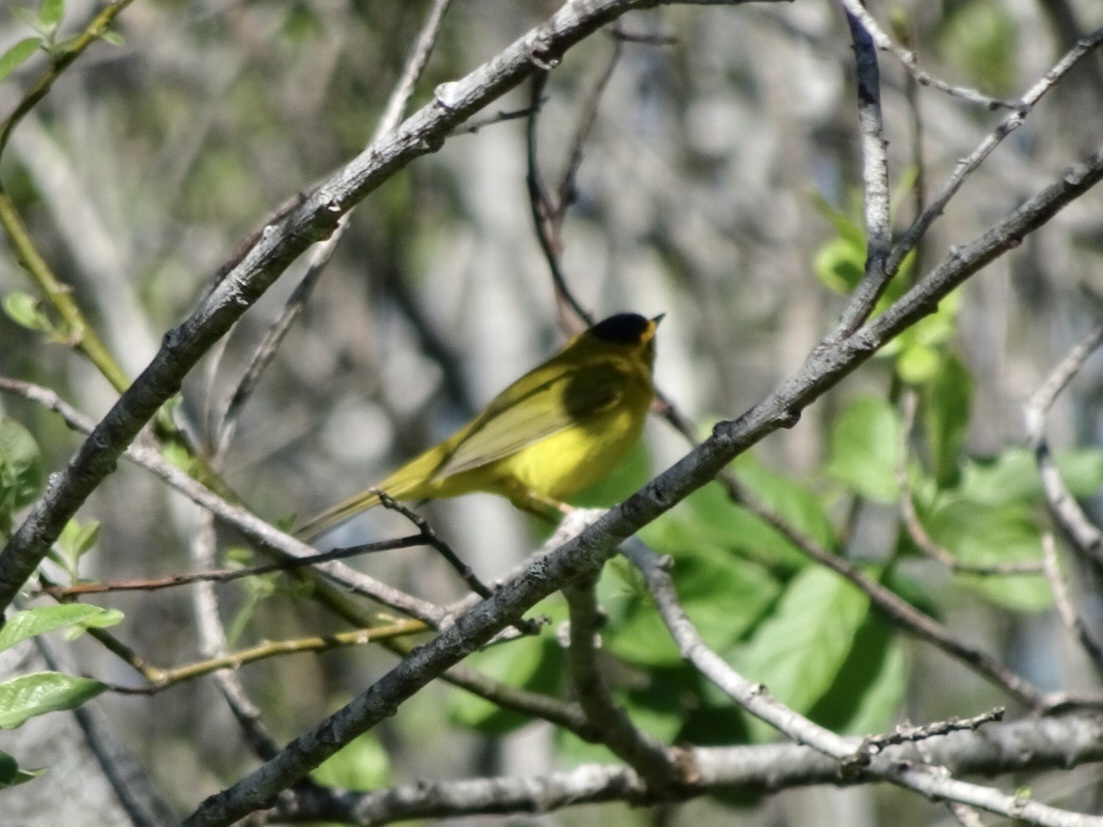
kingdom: Animalia
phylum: Chordata
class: Aves
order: Passeriformes
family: Parulidae
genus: Cardellina
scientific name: Cardellina pusilla
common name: Wilson's warbler
